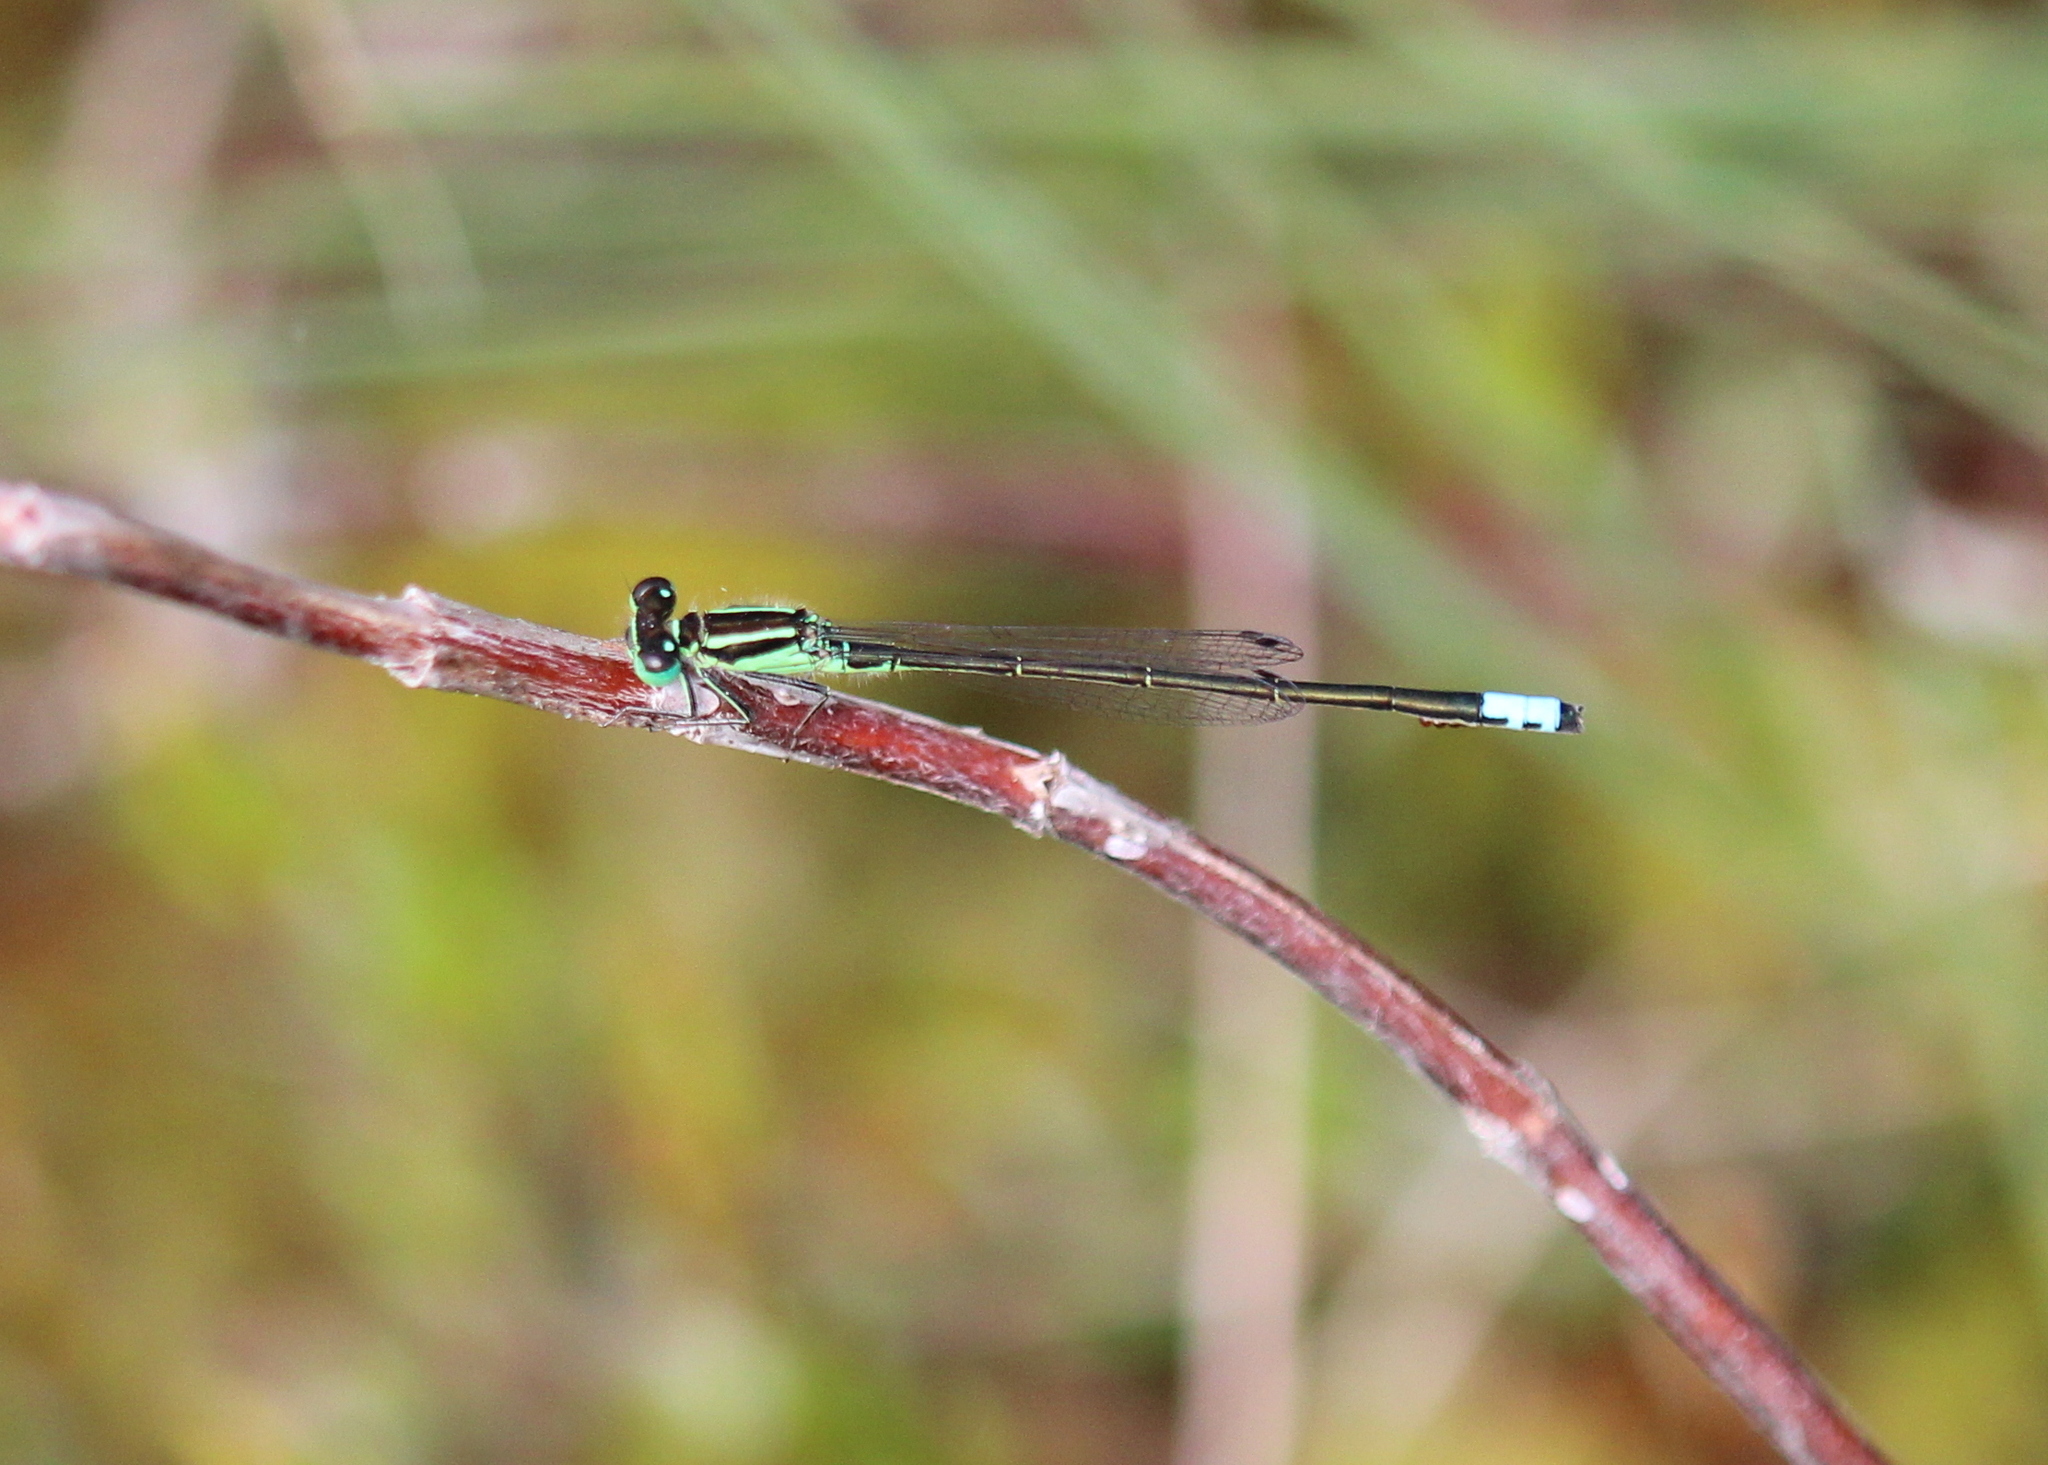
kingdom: Animalia
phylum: Arthropoda
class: Insecta
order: Odonata
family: Coenagrionidae
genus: Ischnura
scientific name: Ischnura verticalis
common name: Eastern forktail
